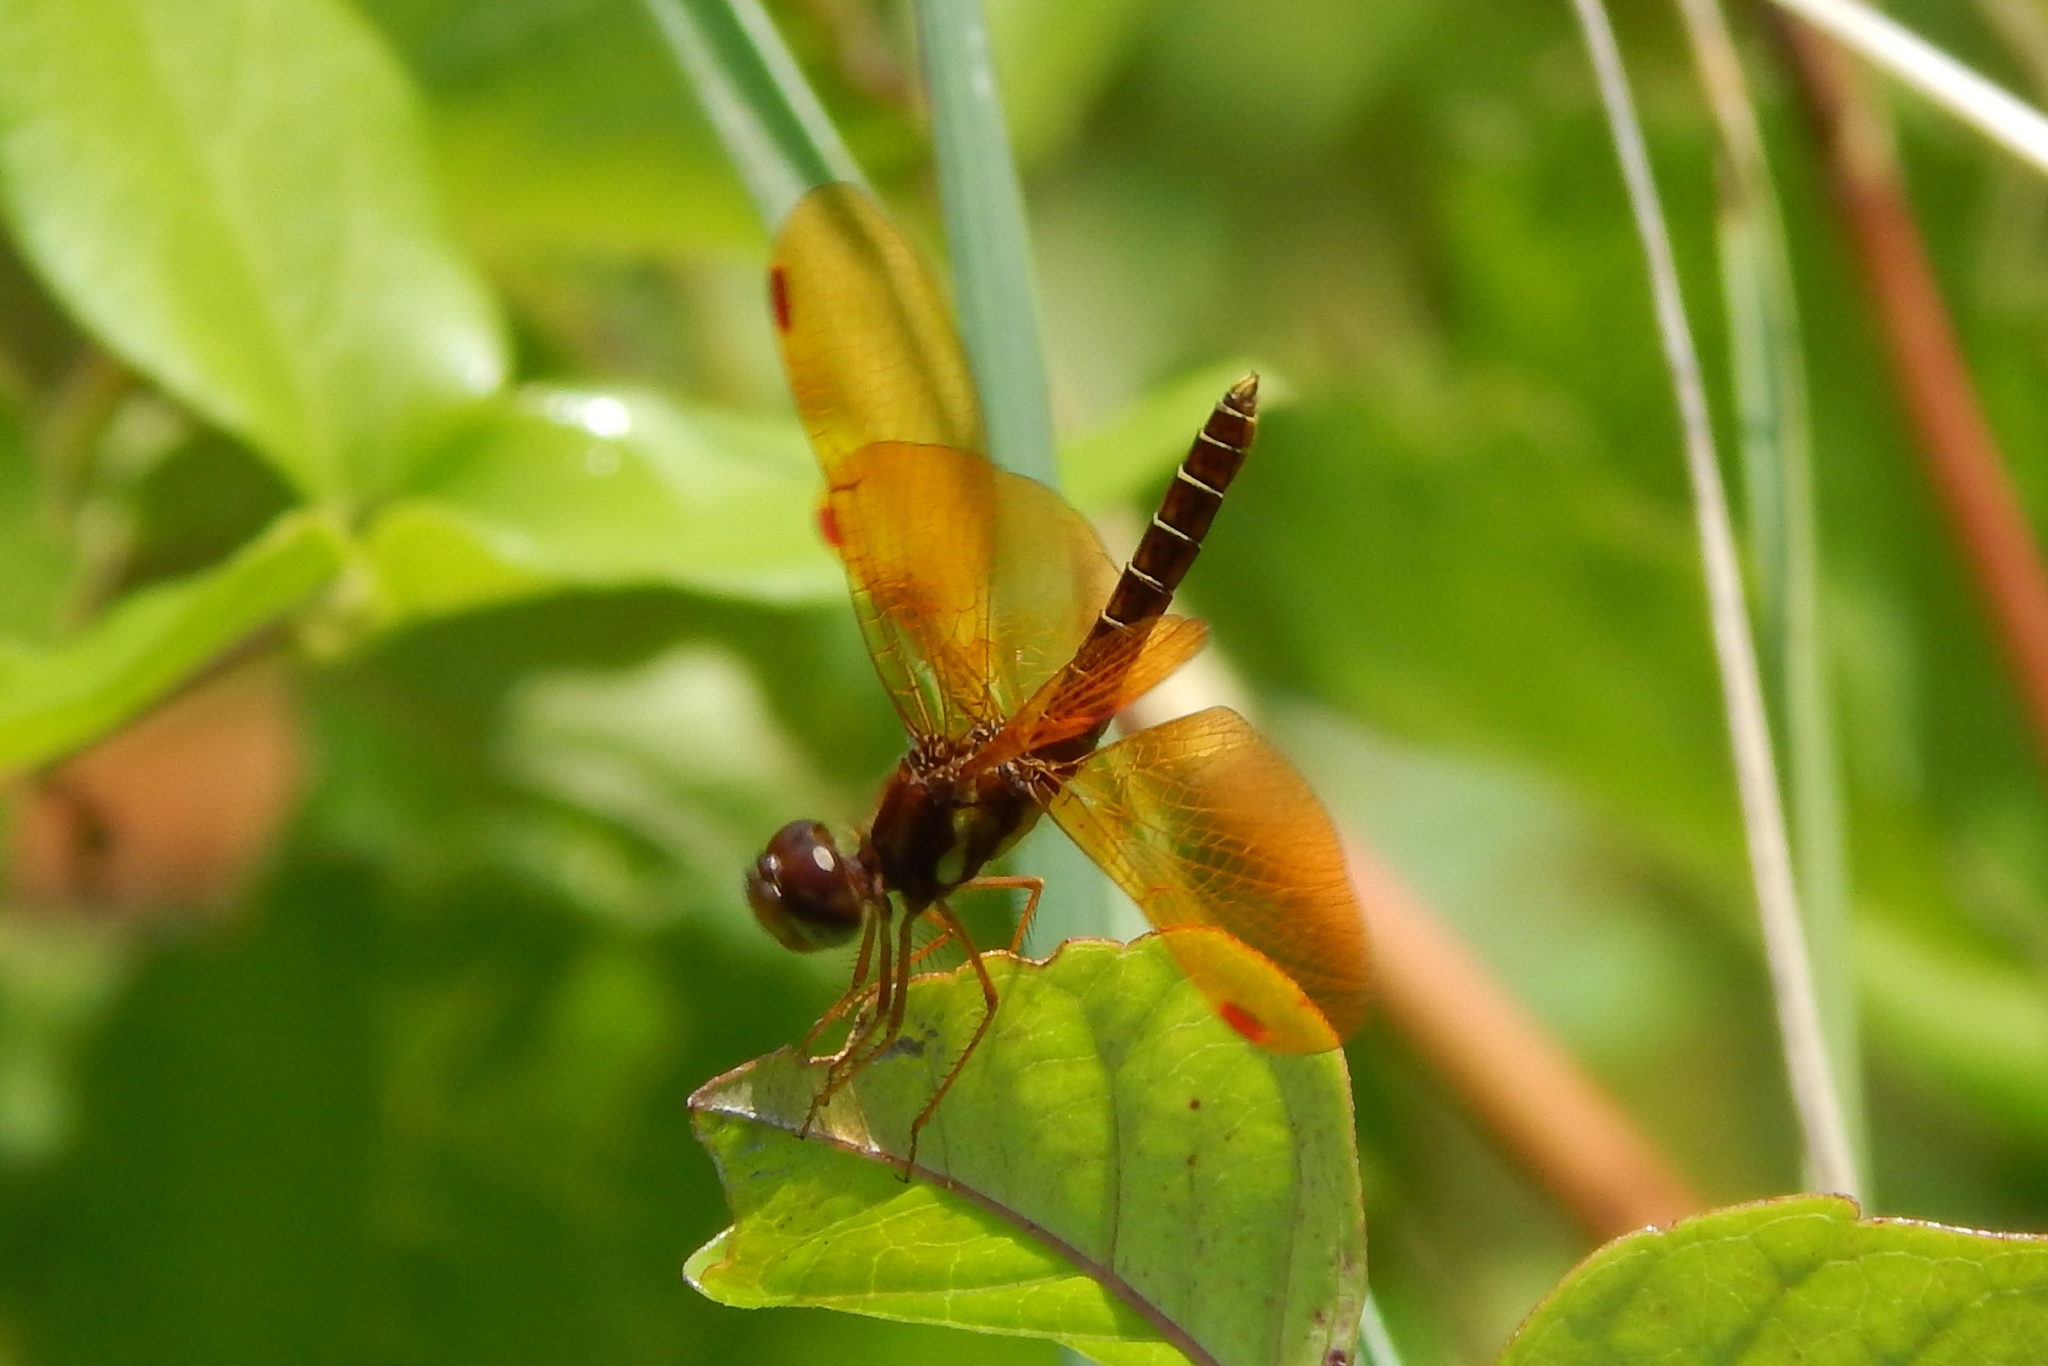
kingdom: Animalia
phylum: Arthropoda
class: Insecta
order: Odonata
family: Libellulidae
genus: Perithemis
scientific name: Perithemis tenera
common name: Eastern amberwing
